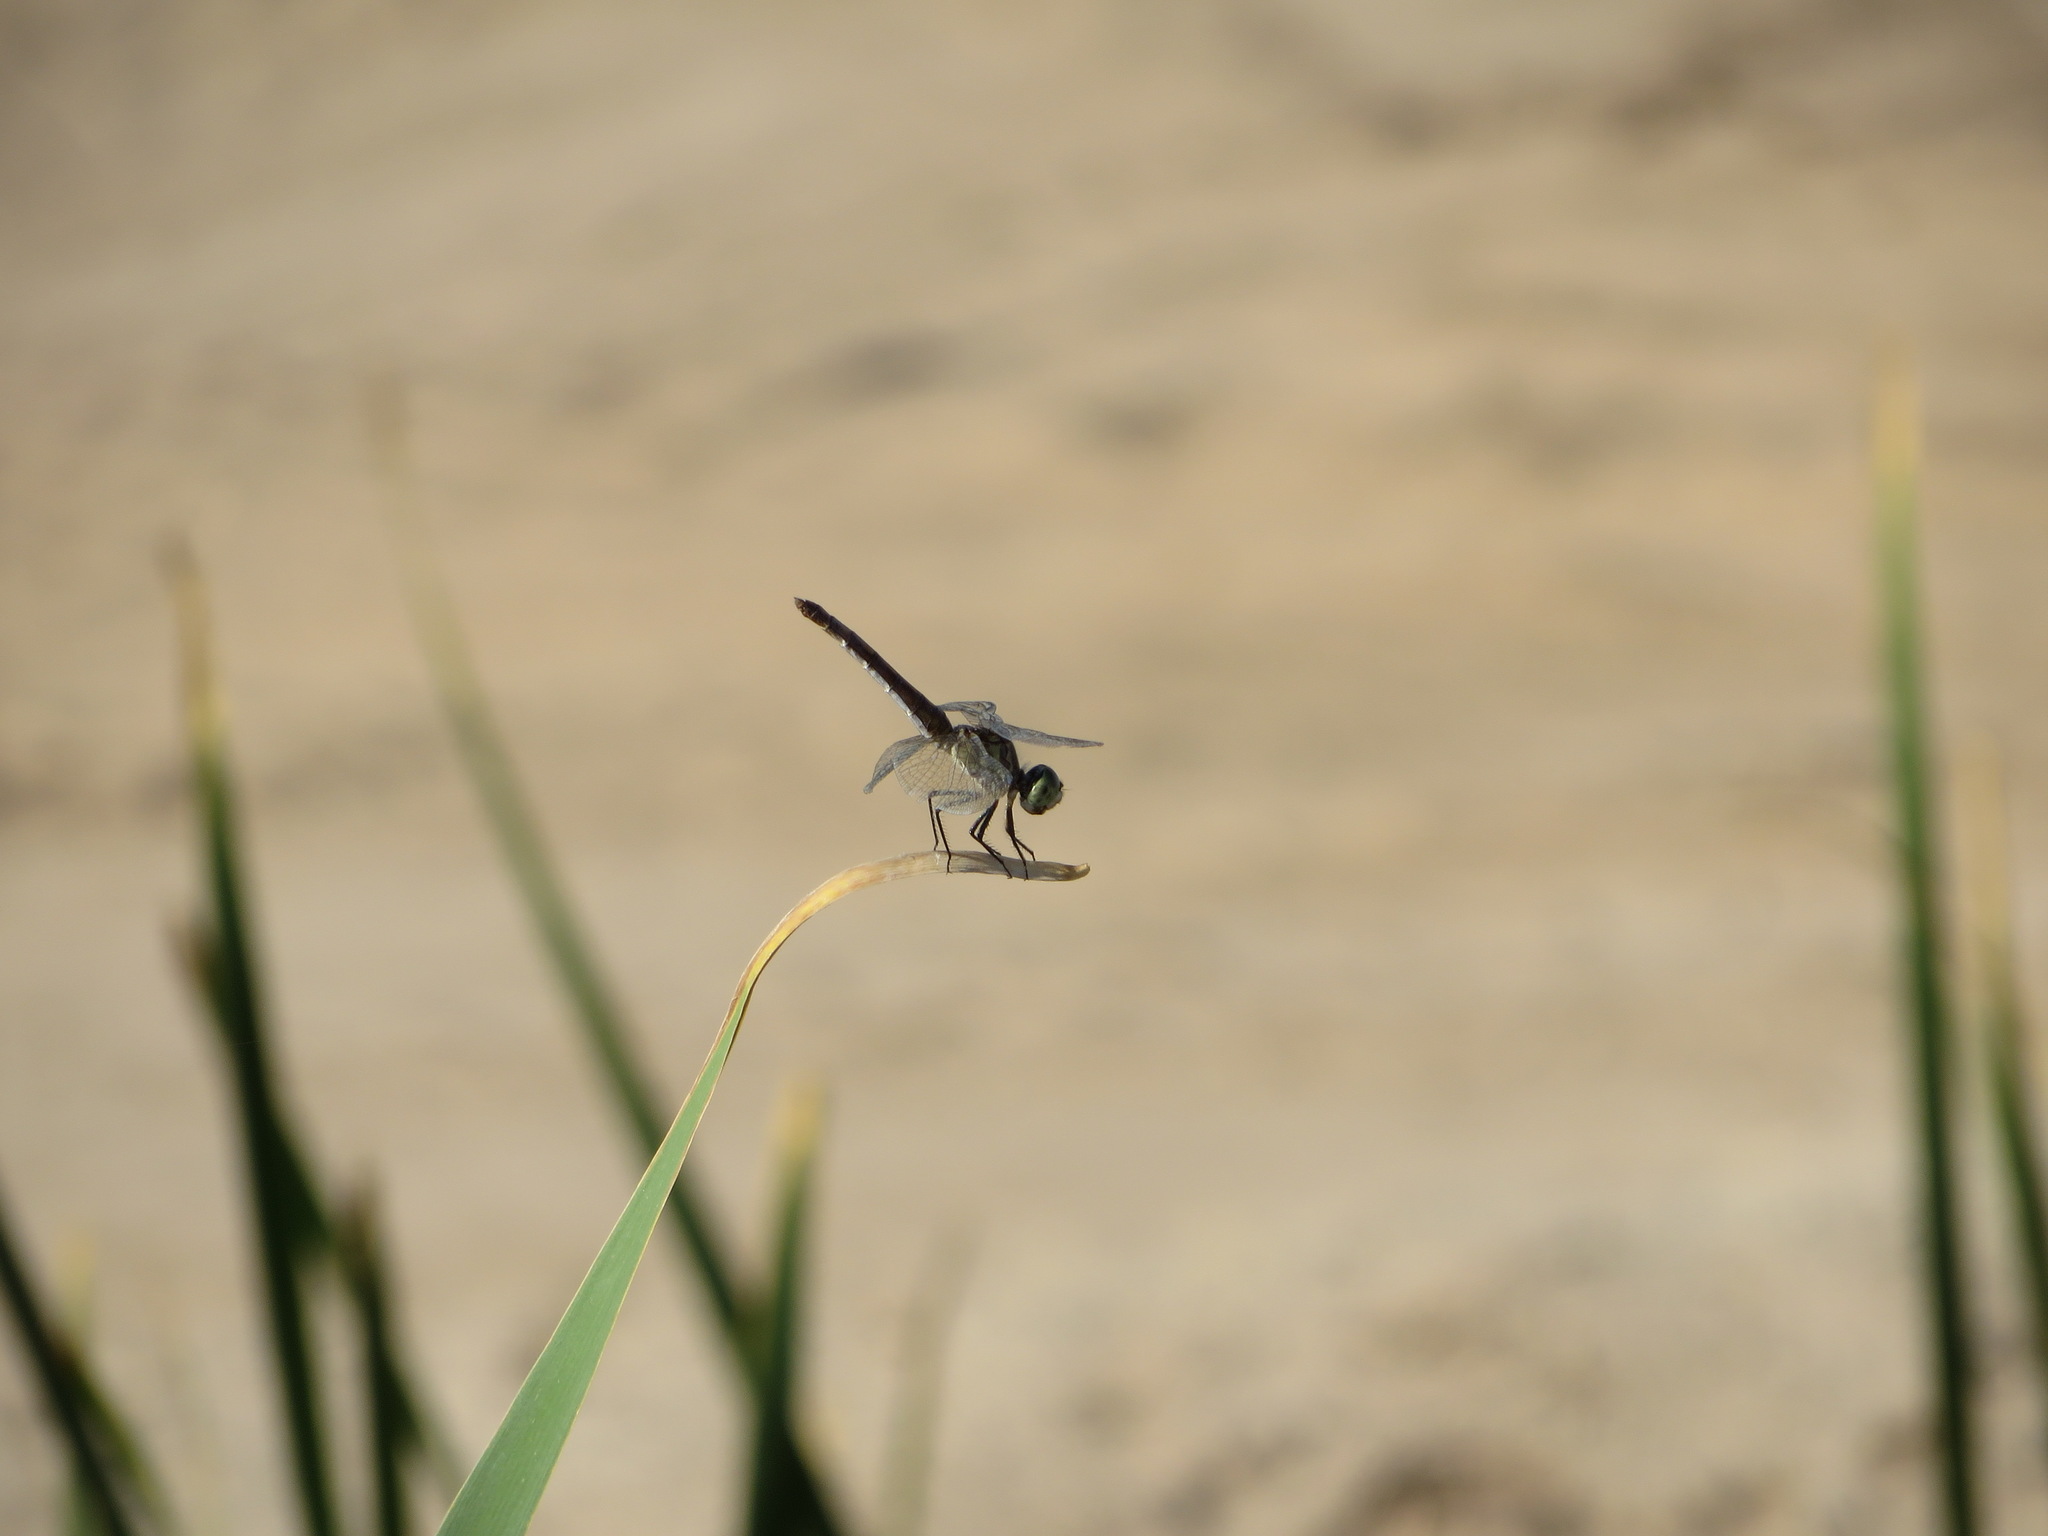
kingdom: Animalia
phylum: Arthropoda
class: Insecta
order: Odonata
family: Libellulidae
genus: Pachydiplax
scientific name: Pachydiplax longipennis
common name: Blue dasher
